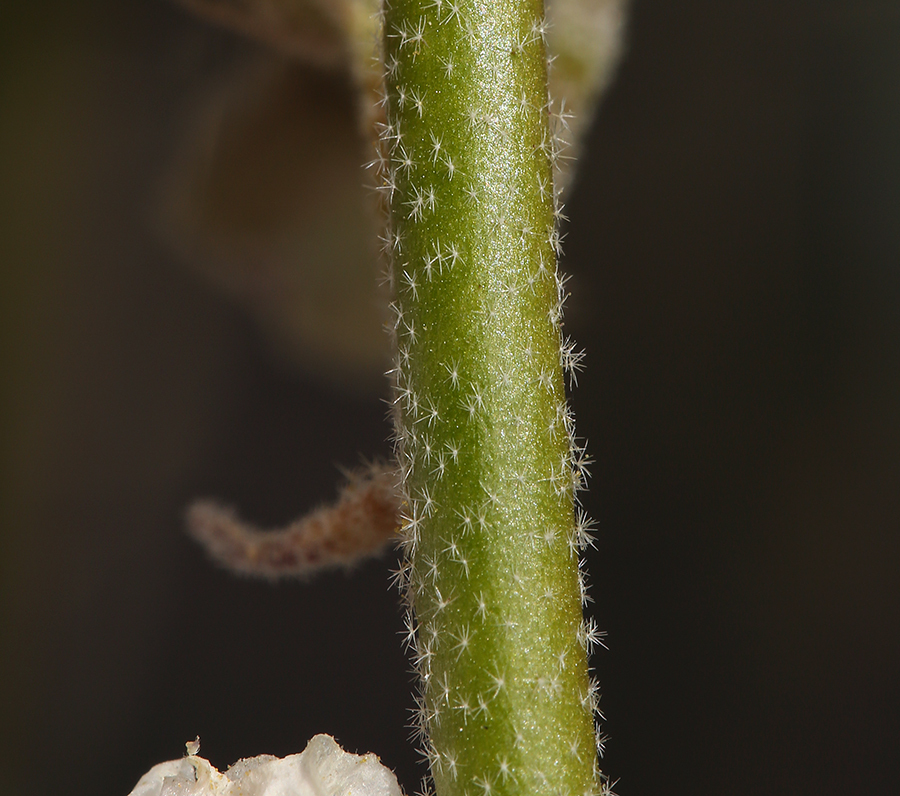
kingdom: Plantae
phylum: Tracheophyta
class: Magnoliopsida
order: Malvales
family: Malvaceae
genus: Sphaeralcea
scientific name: Sphaeralcea ambigua
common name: Apricot globe-mallow
